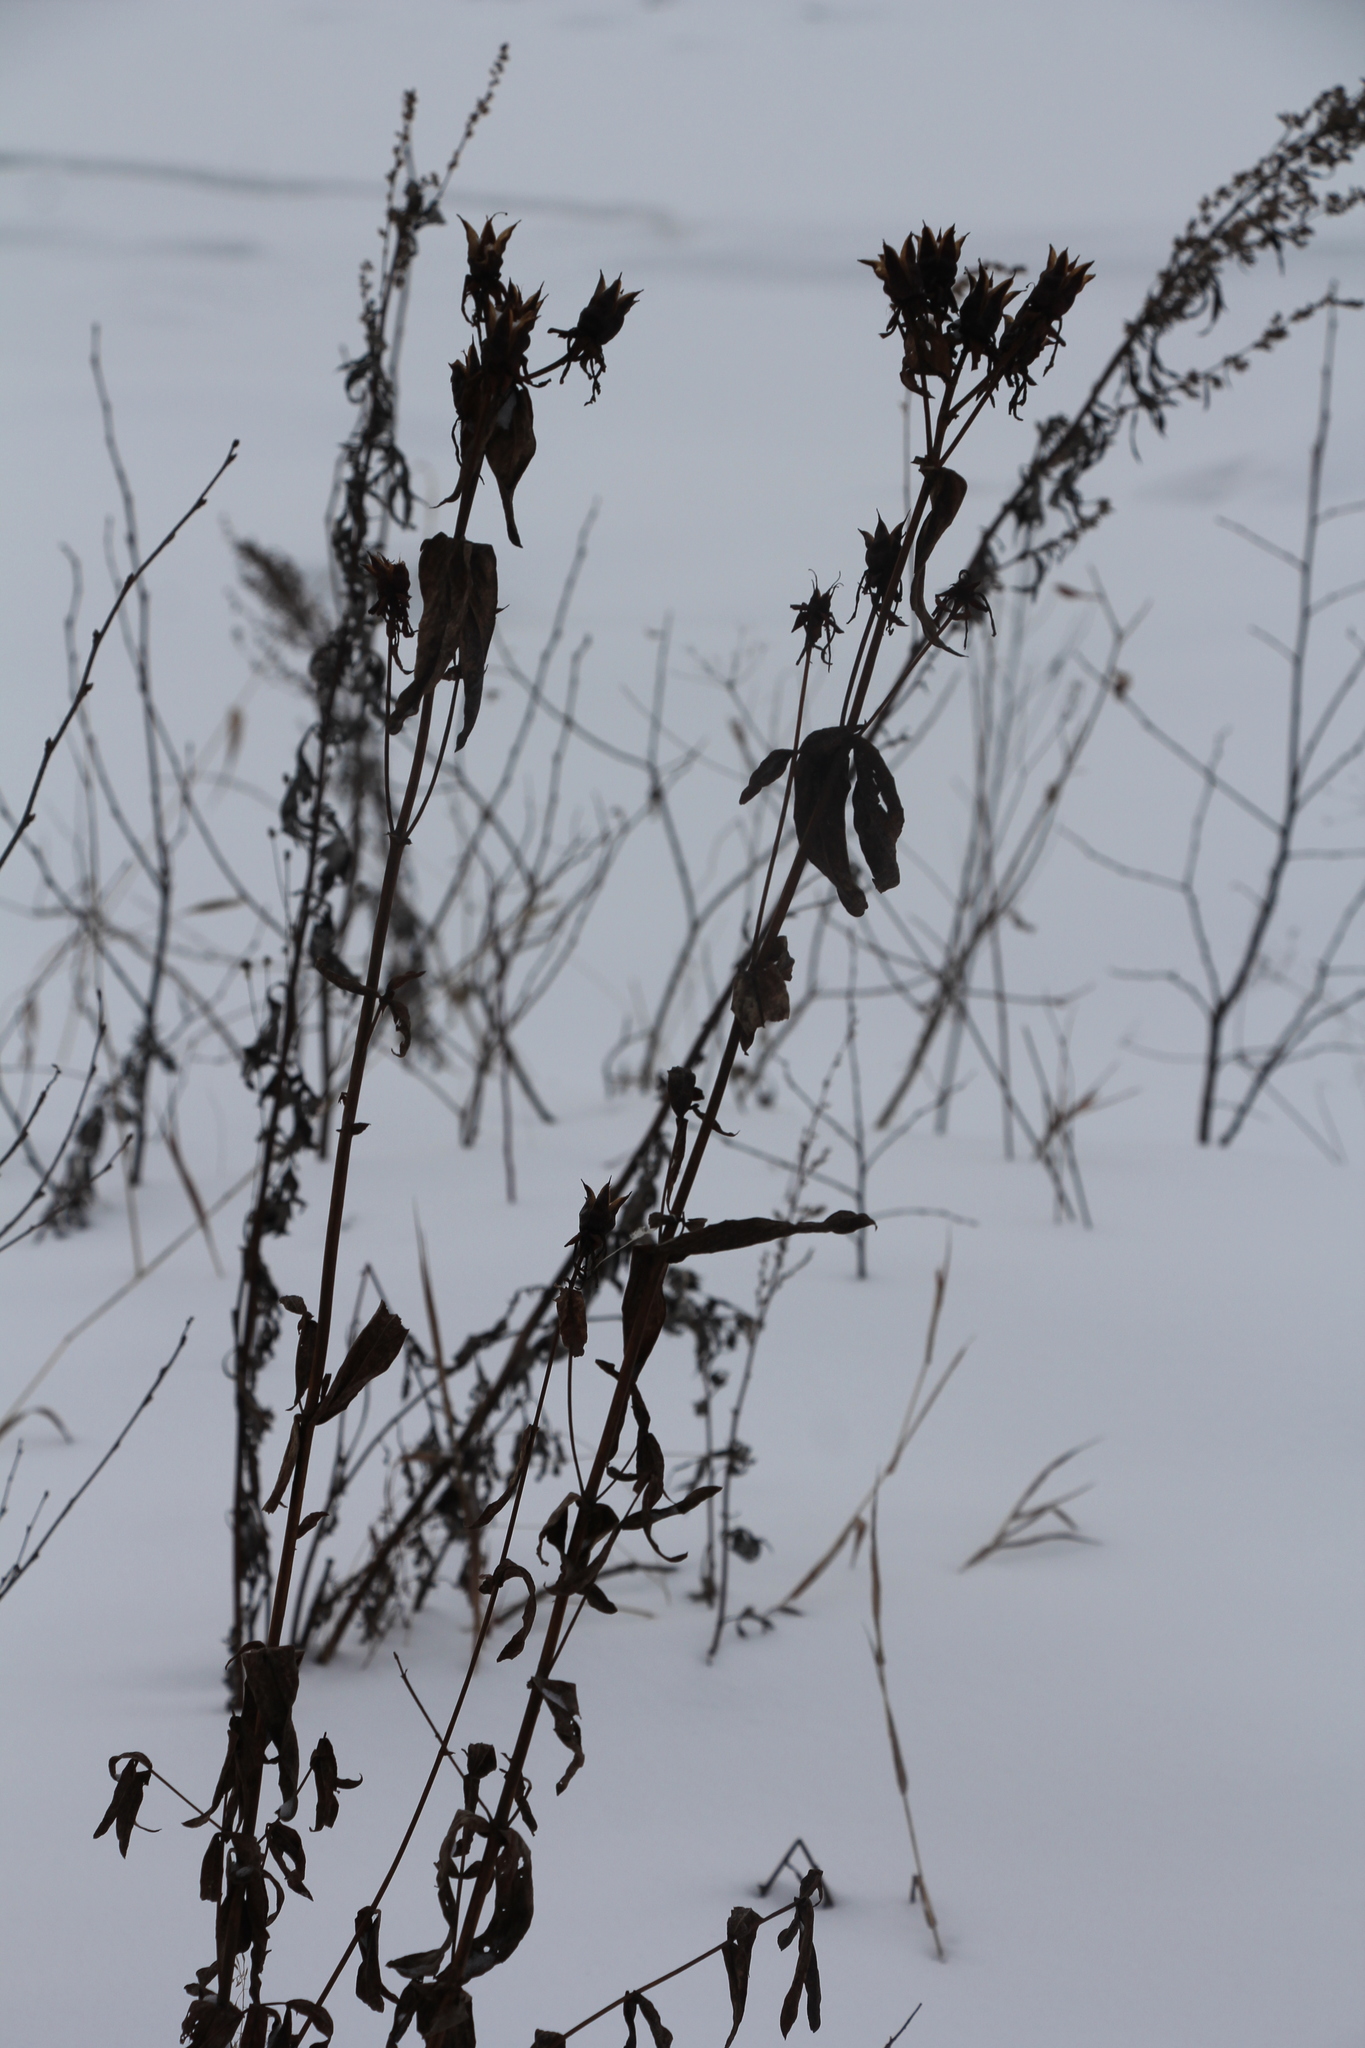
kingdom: Plantae
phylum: Tracheophyta
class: Magnoliopsida
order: Malpighiales
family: Hypericaceae
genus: Hypericum
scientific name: Hypericum ascyron
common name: Giant st. john's-wort
